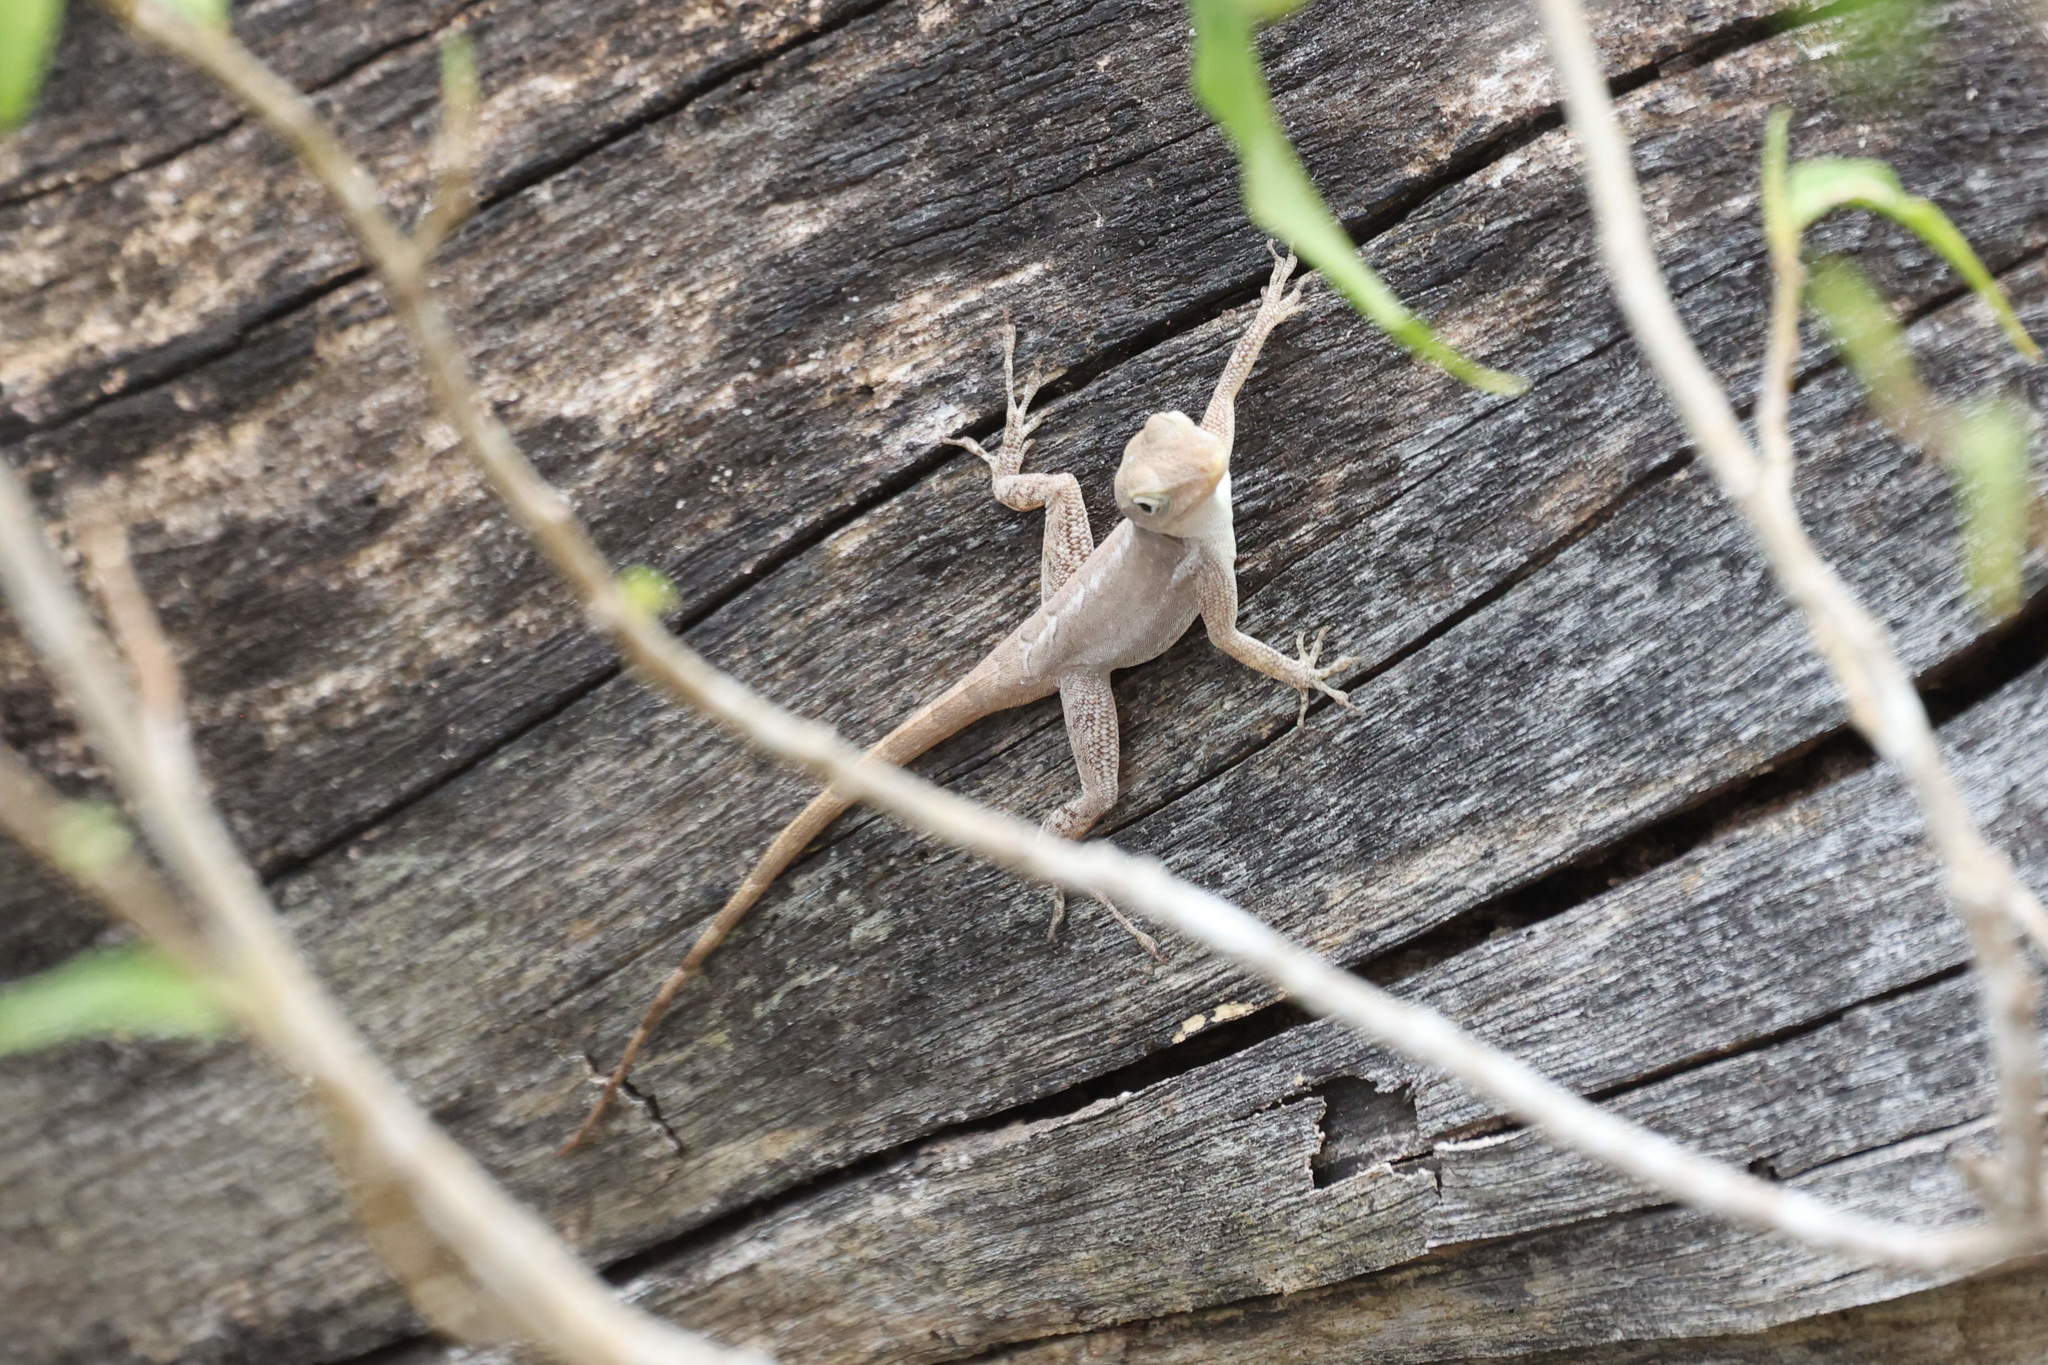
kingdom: Animalia
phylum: Chordata
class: Squamata
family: Dactyloidae
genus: Anolis
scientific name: Anolis marmoratus
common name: Guadeloupe anole
